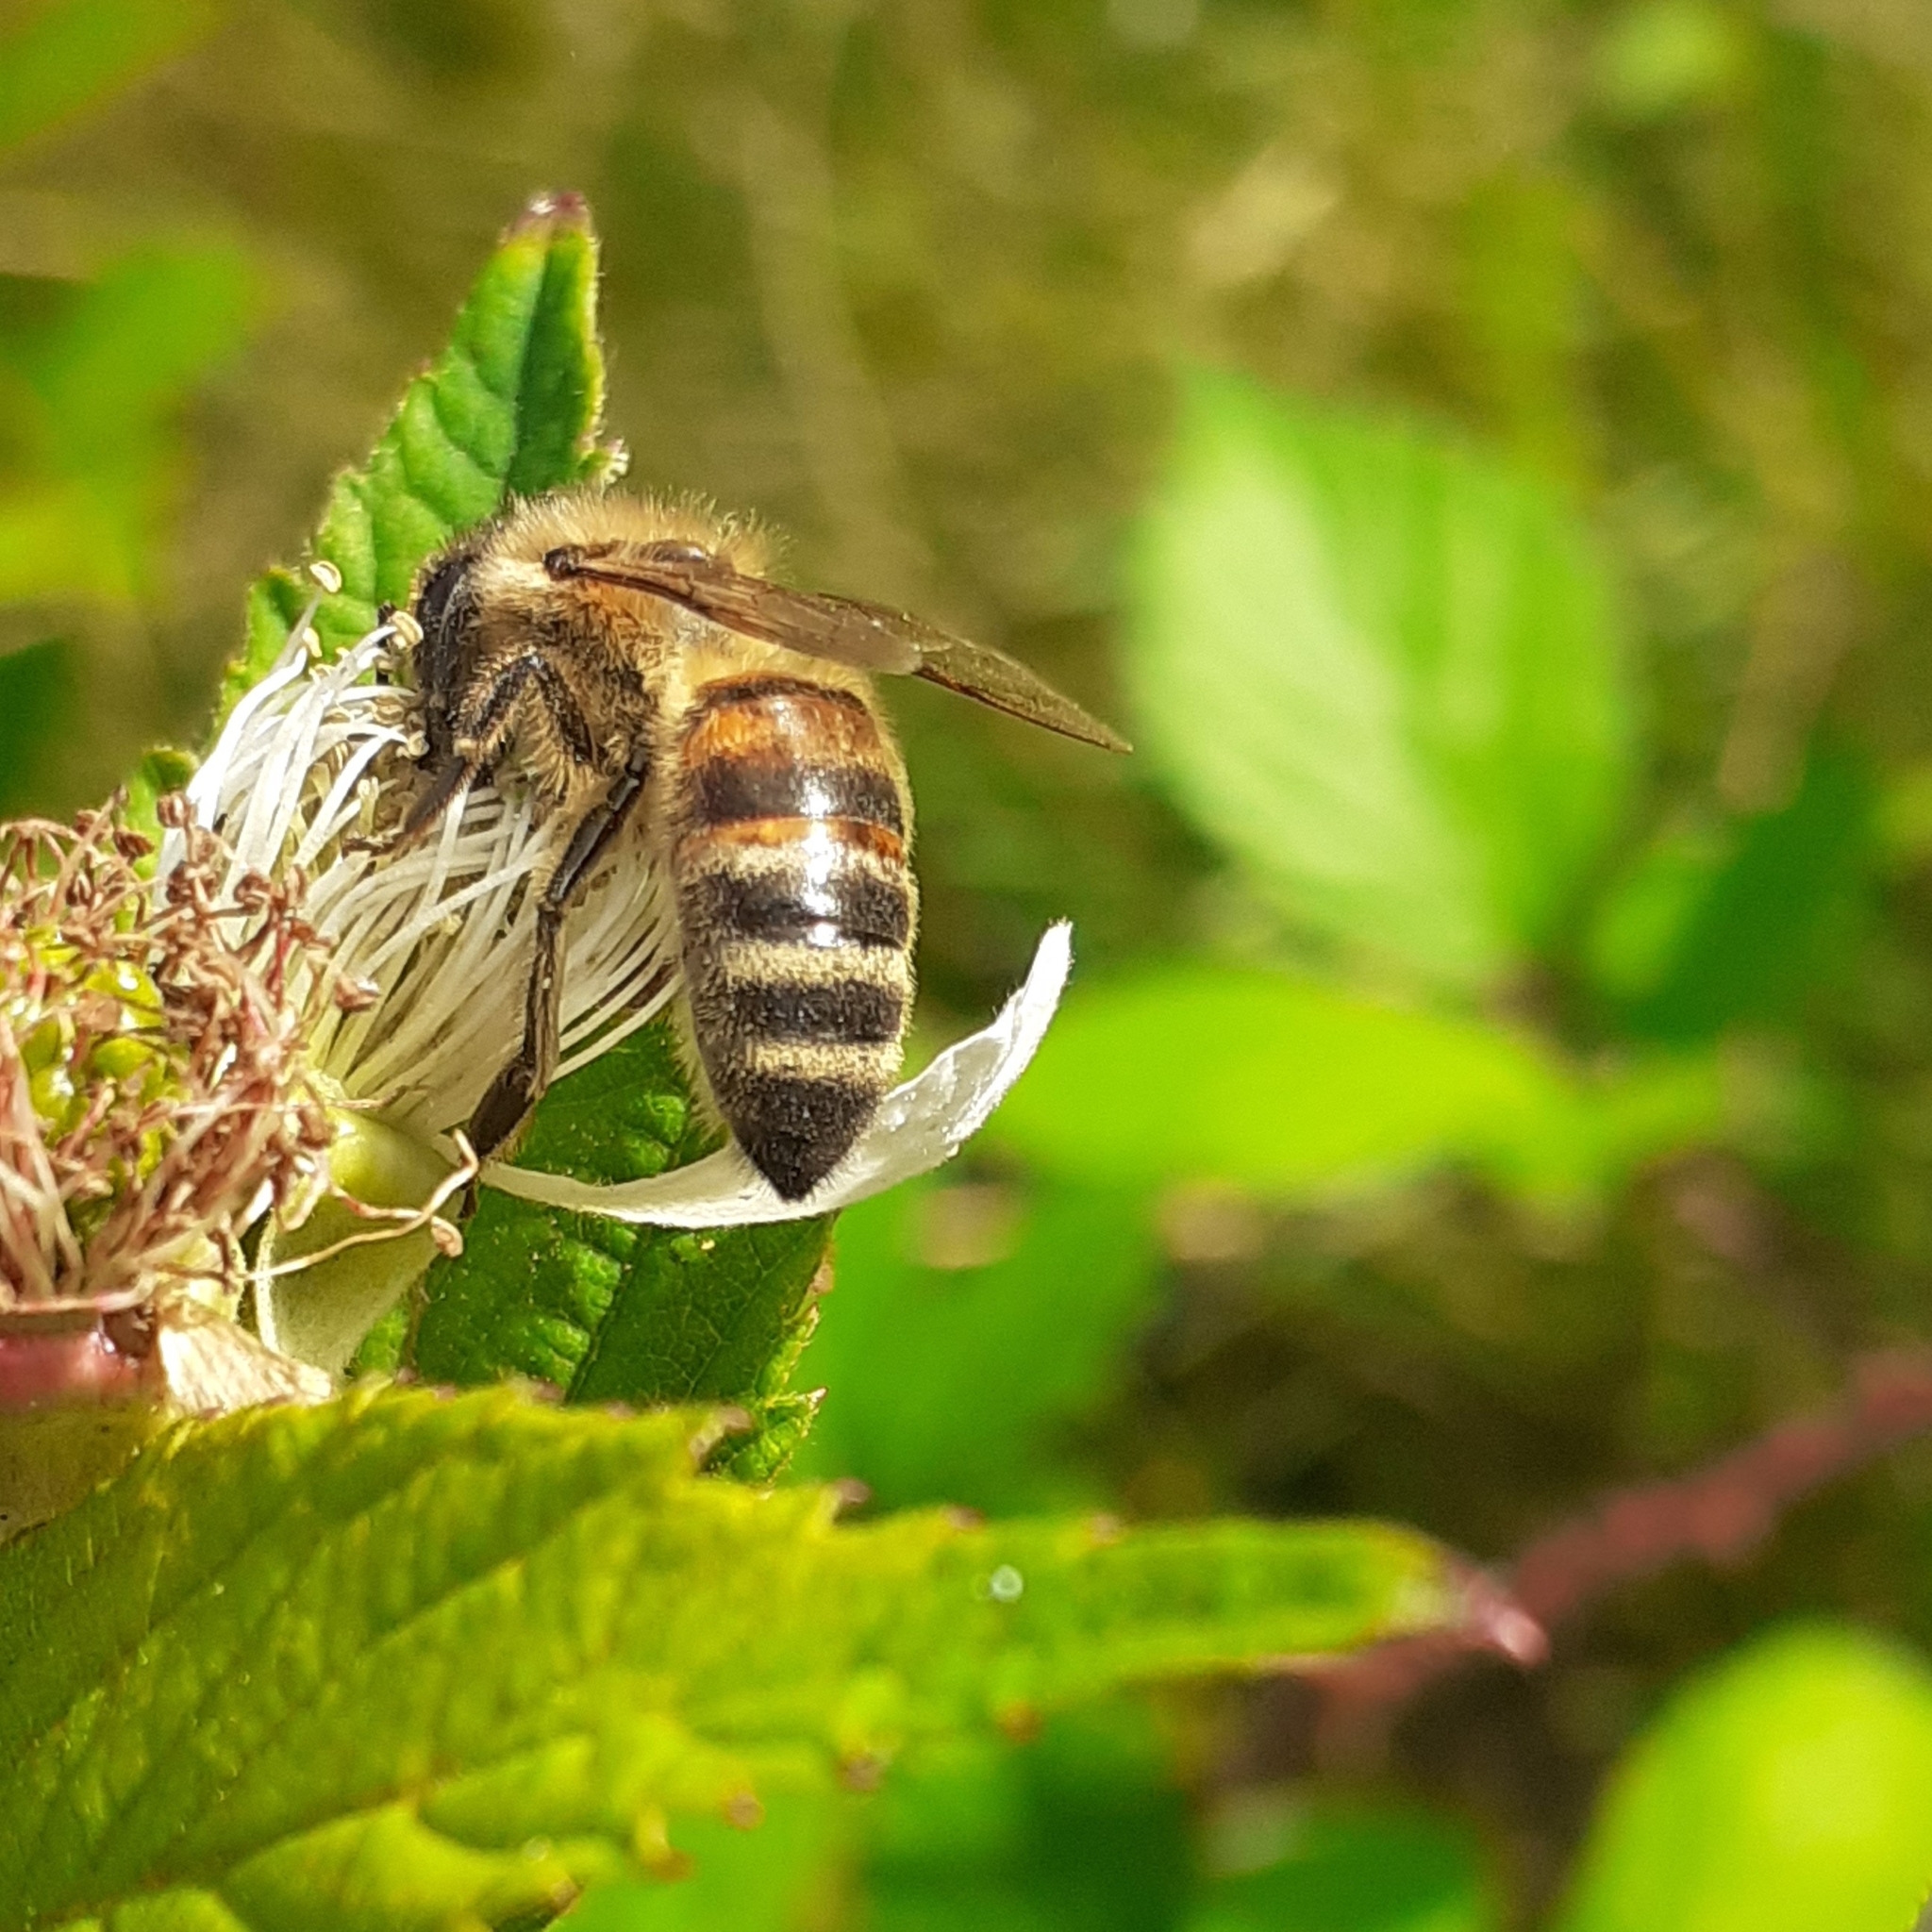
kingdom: Animalia
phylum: Arthropoda
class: Insecta
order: Hymenoptera
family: Apidae
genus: Apis
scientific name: Apis mellifera
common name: Honey bee
